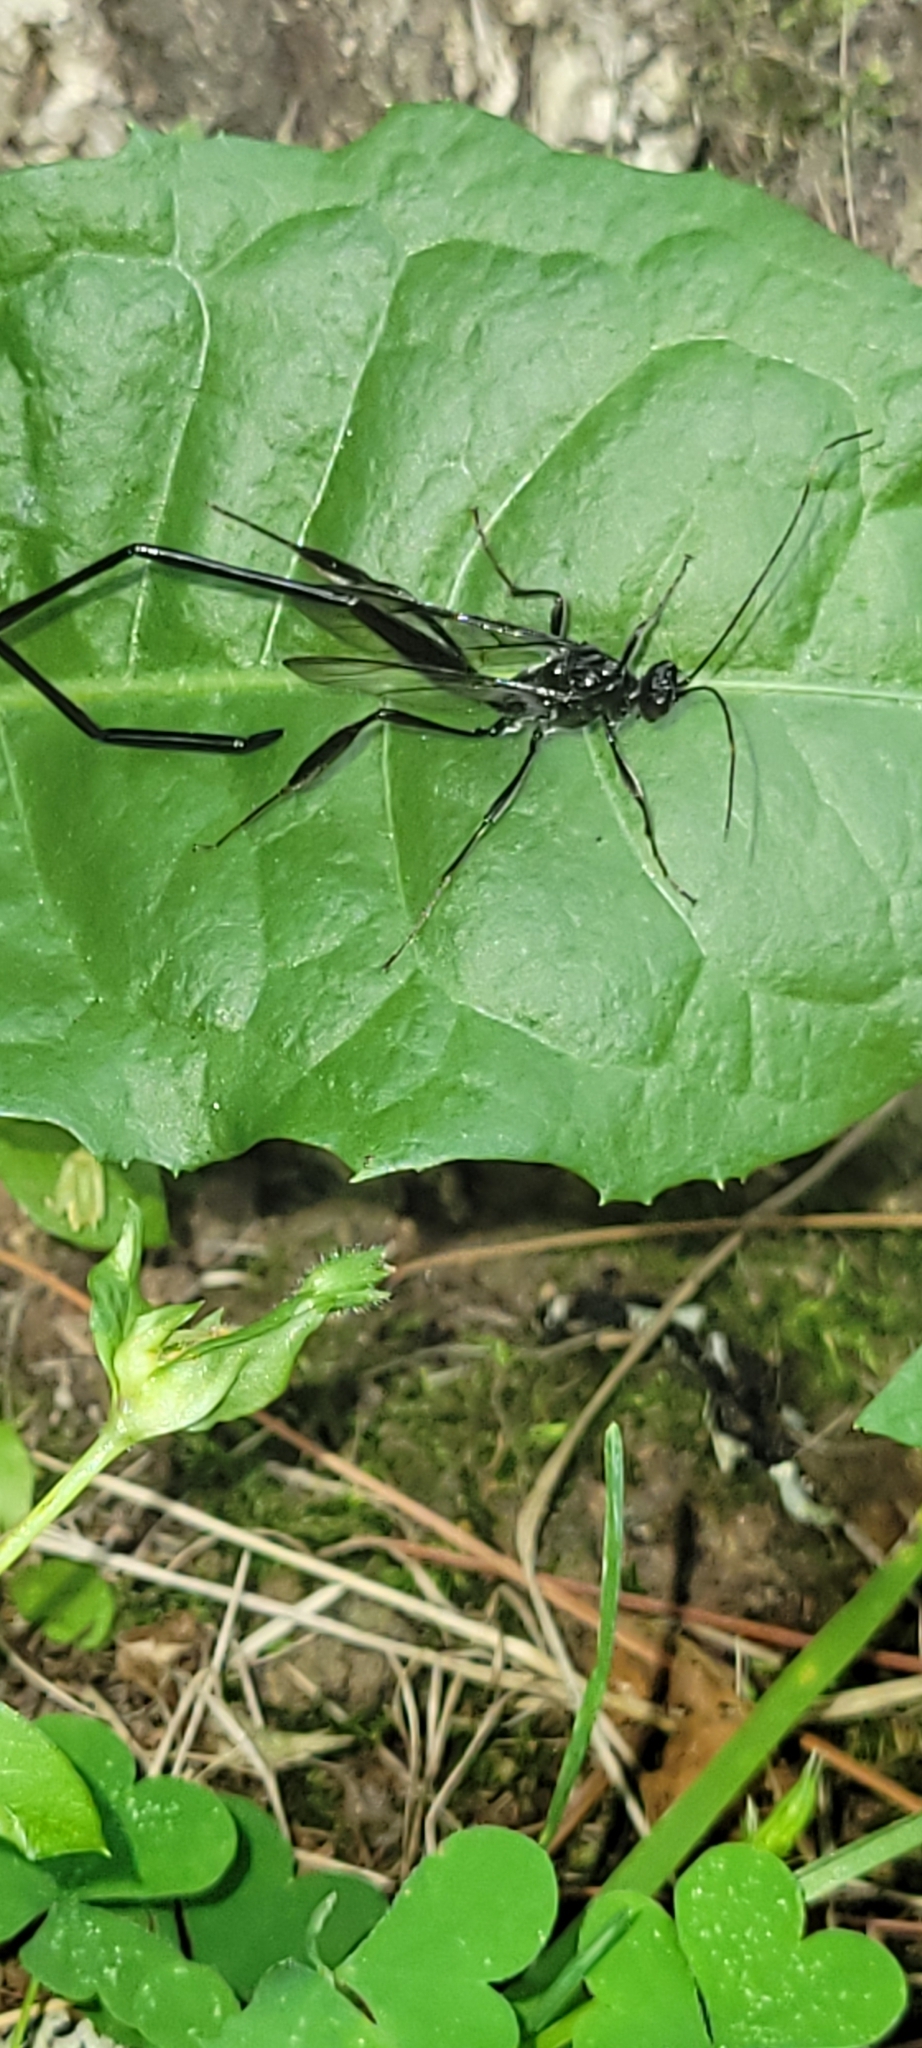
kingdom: Animalia
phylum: Arthropoda
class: Insecta
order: Hymenoptera
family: Pelecinidae
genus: Pelecinus
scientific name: Pelecinus polyturator
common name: American pelecinid wasp
